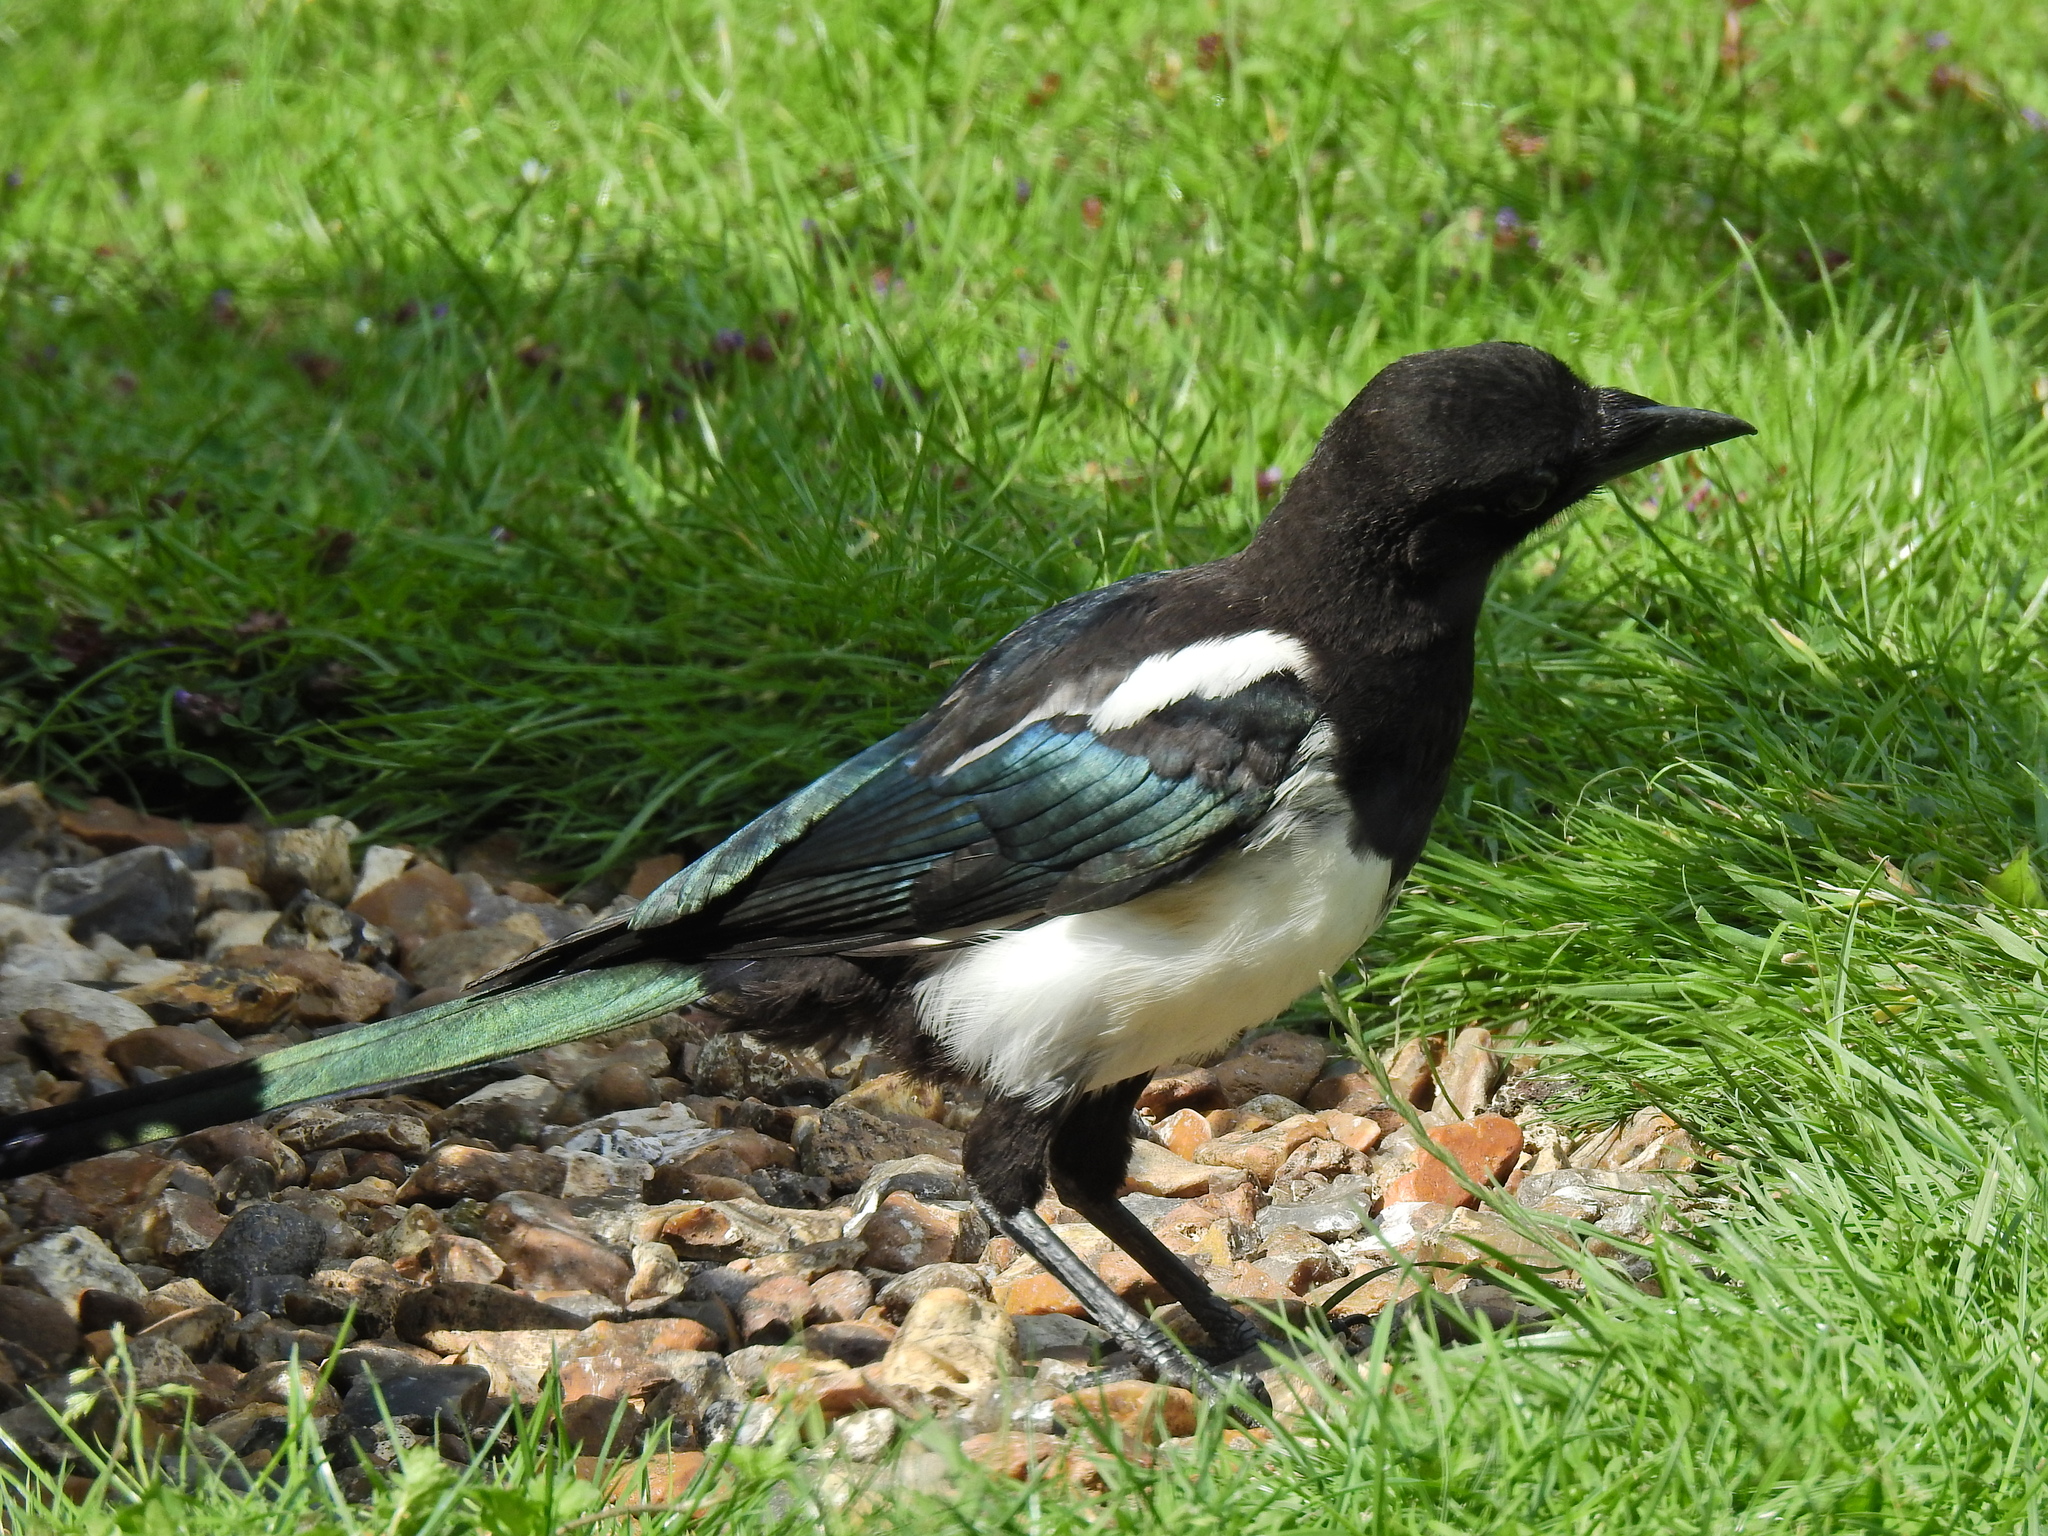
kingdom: Animalia
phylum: Chordata
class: Aves
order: Passeriformes
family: Corvidae
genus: Pica
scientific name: Pica pica
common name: Eurasian magpie
